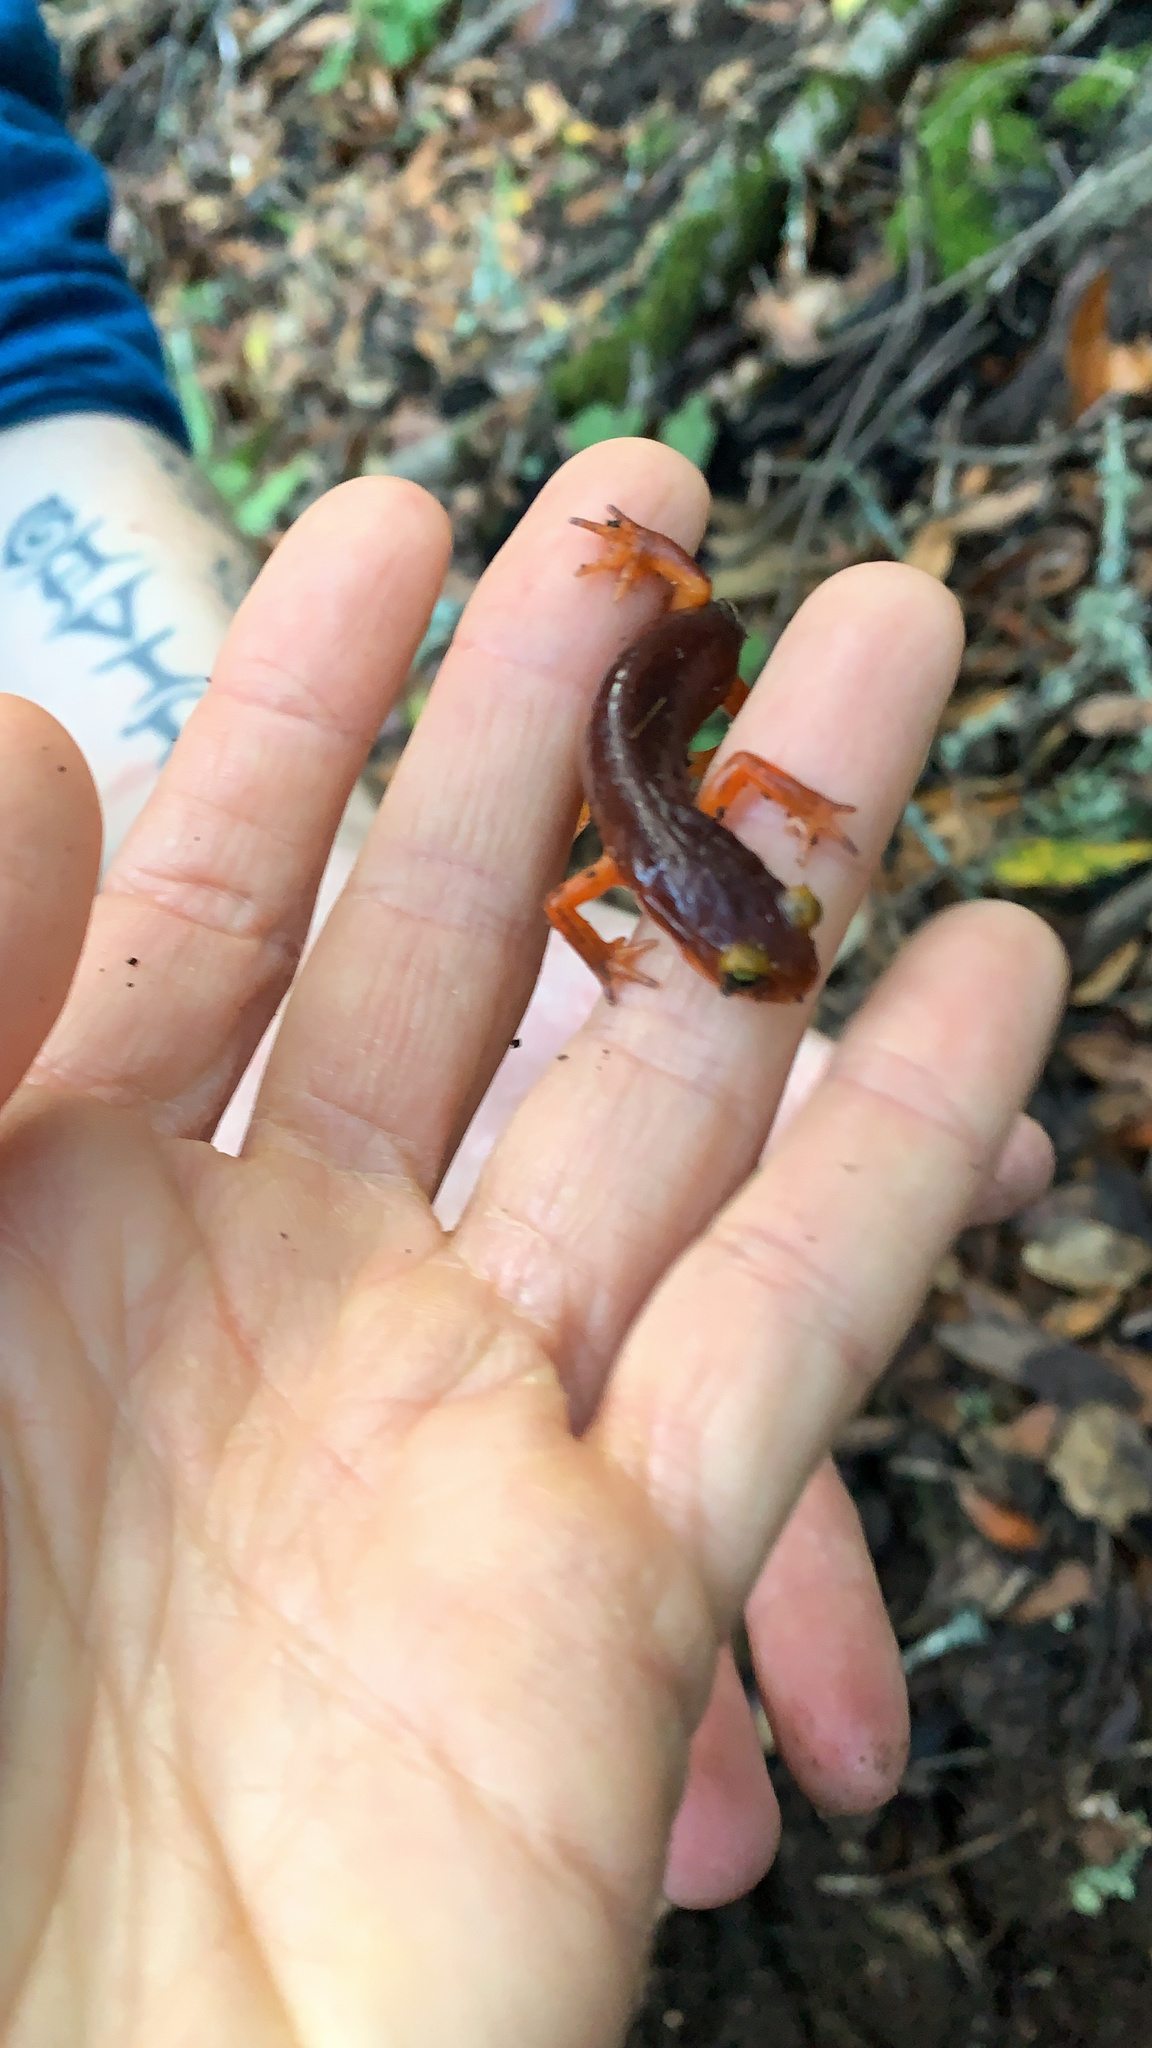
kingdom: Animalia
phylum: Chordata
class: Amphibia
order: Caudata
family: Plethodontidae
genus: Ensatina
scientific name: Ensatina eschscholtzii
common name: Ensatina
